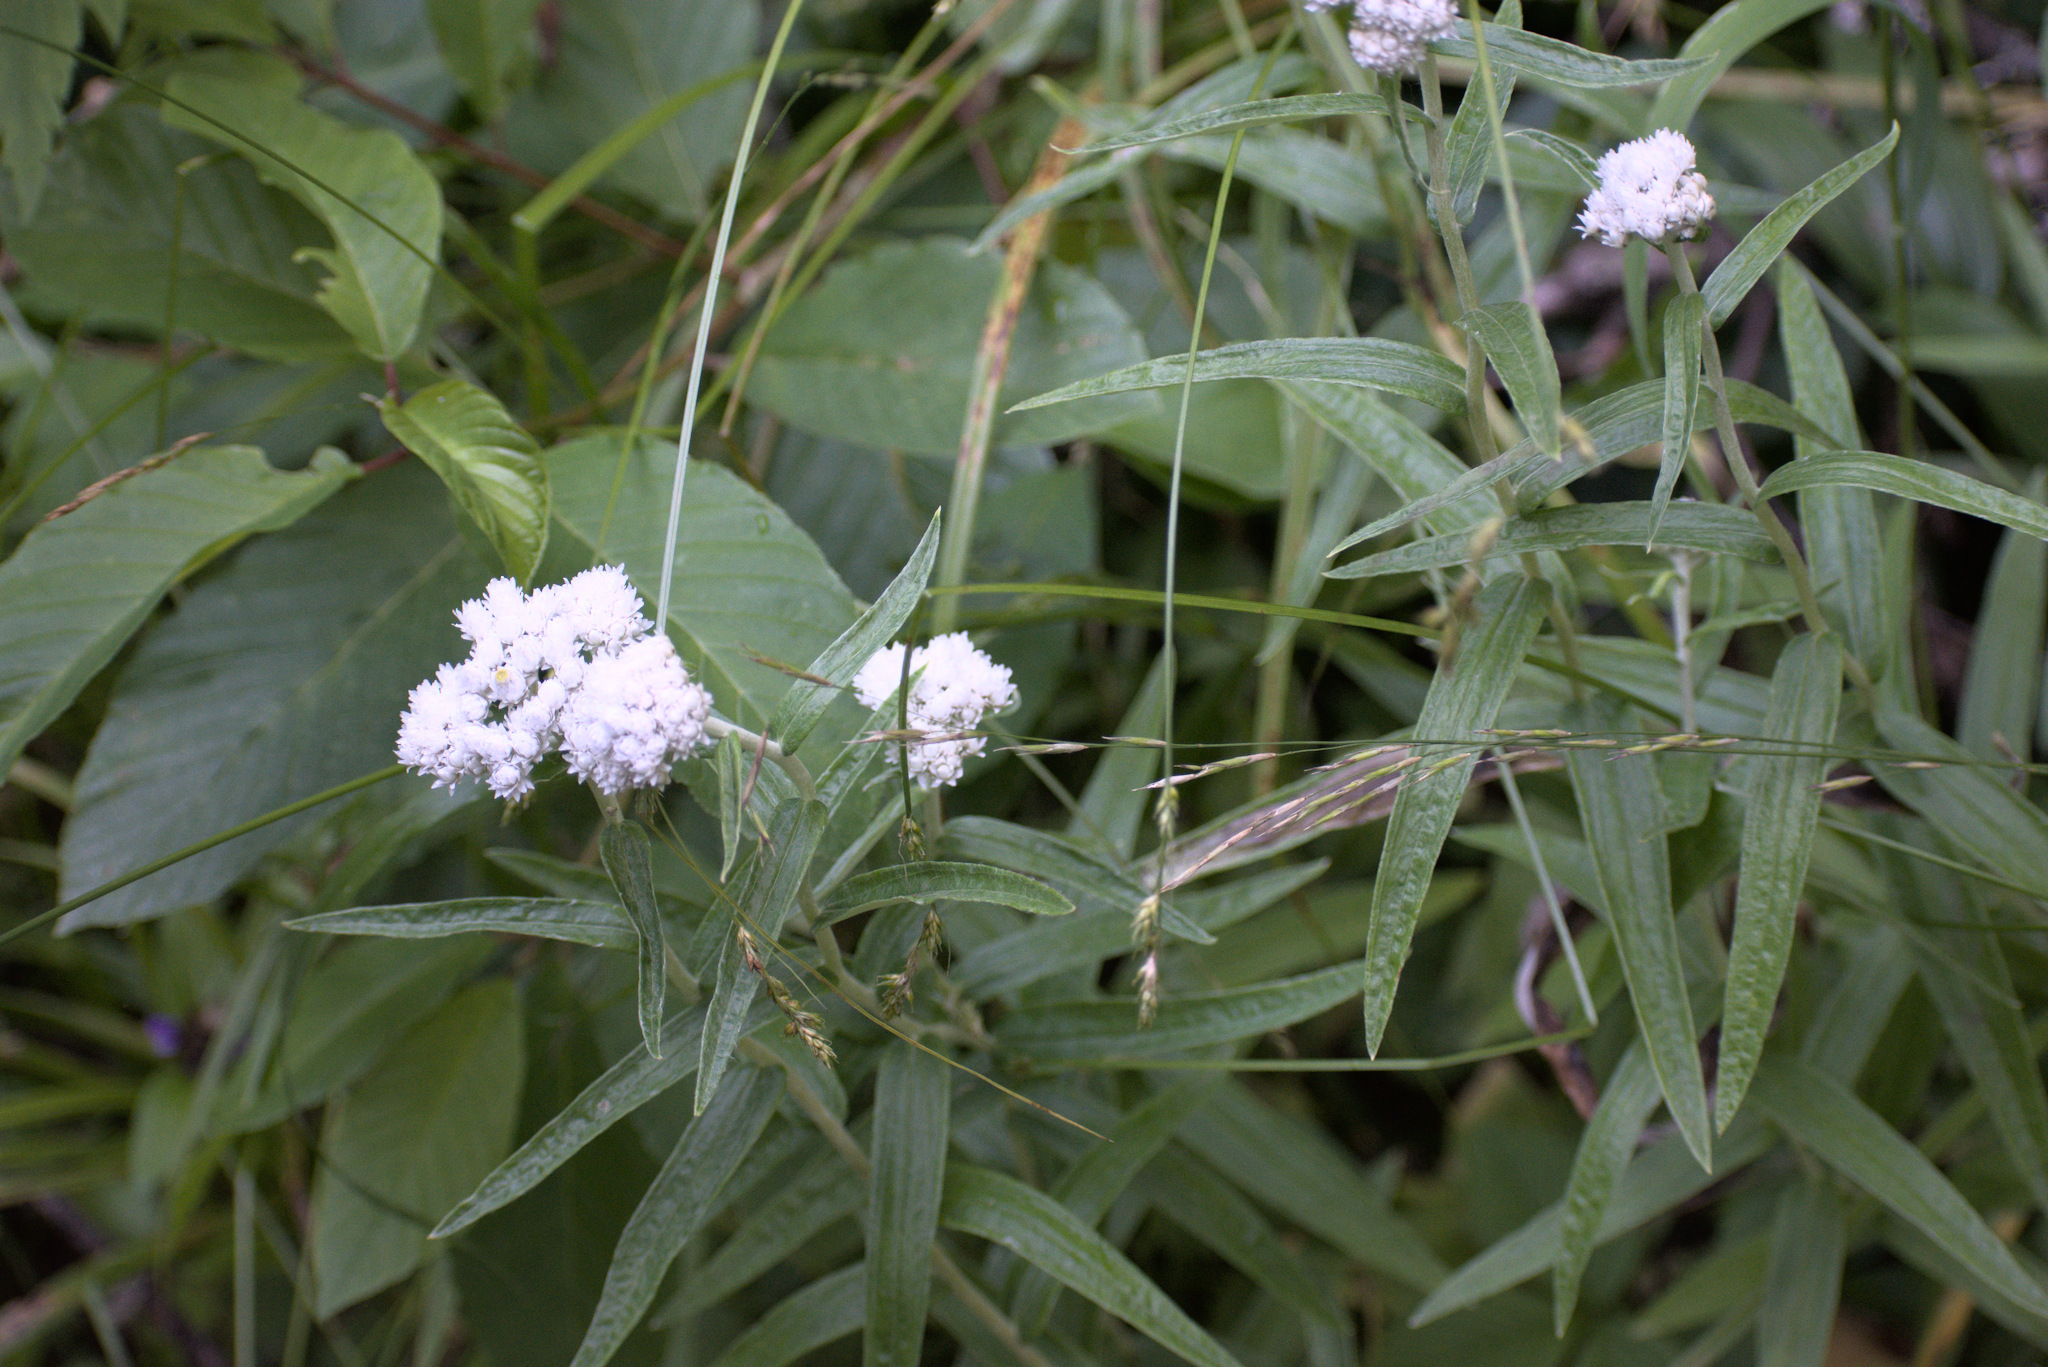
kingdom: Plantae
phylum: Tracheophyta
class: Magnoliopsida
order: Asterales
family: Asteraceae
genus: Anaphalis
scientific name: Anaphalis margaritacea
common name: Pearly everlasting
